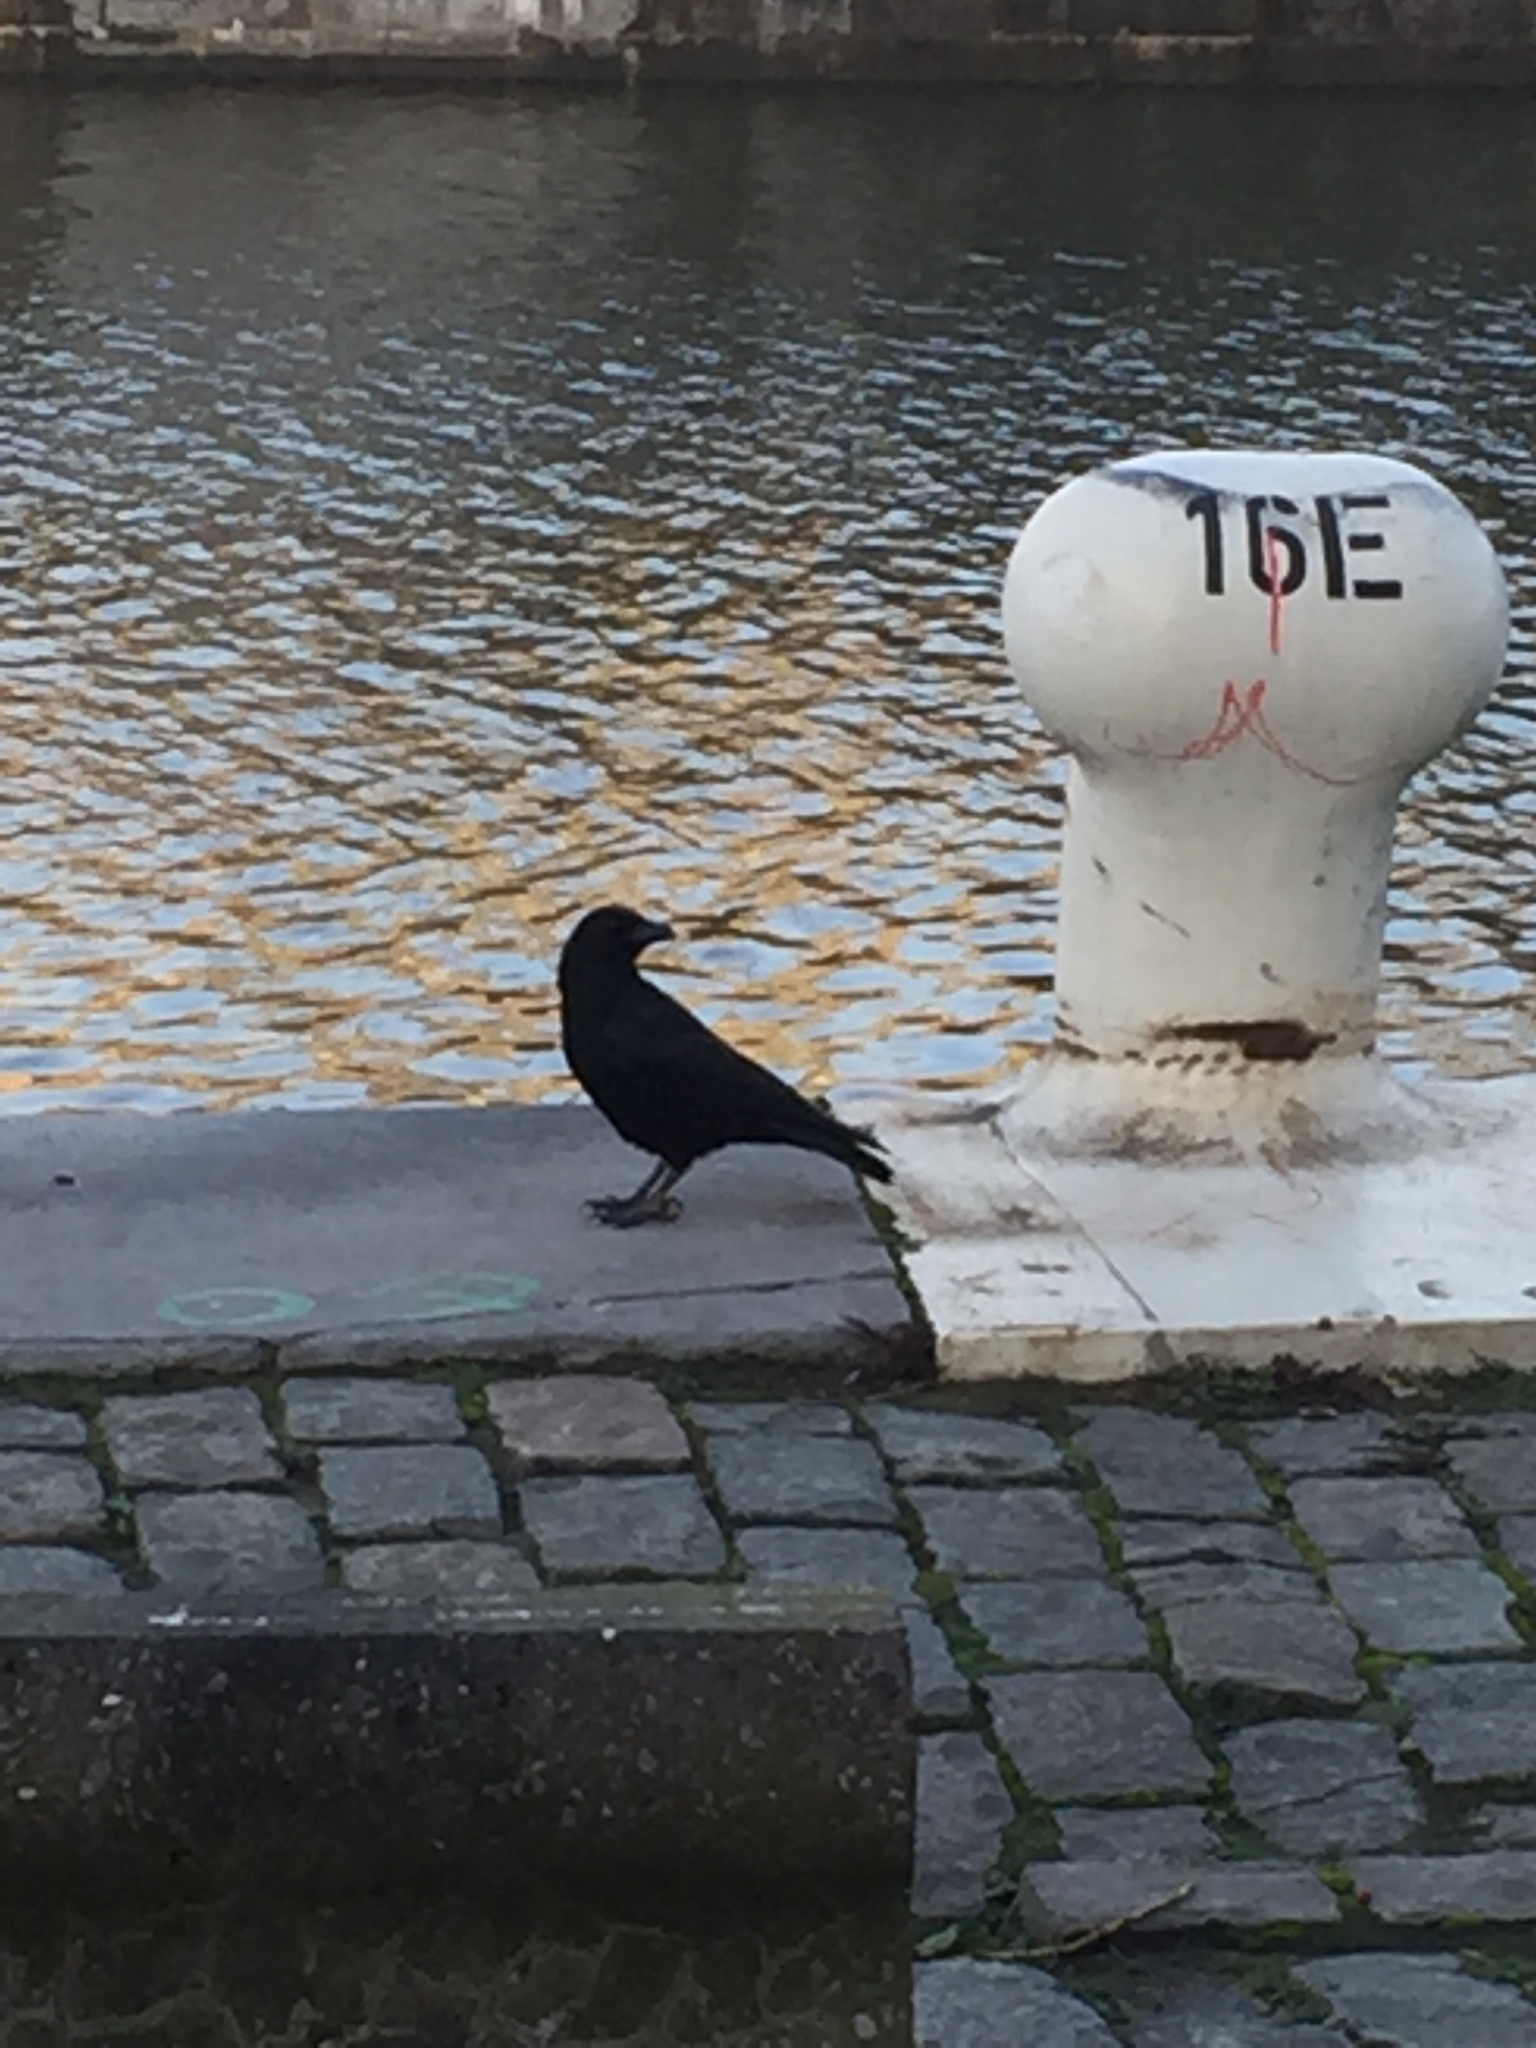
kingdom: Animalia
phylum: Chordata
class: Aves
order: Passeriformes
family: Corvidae
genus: Corvus
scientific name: Corvus corone
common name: Carrion crow
